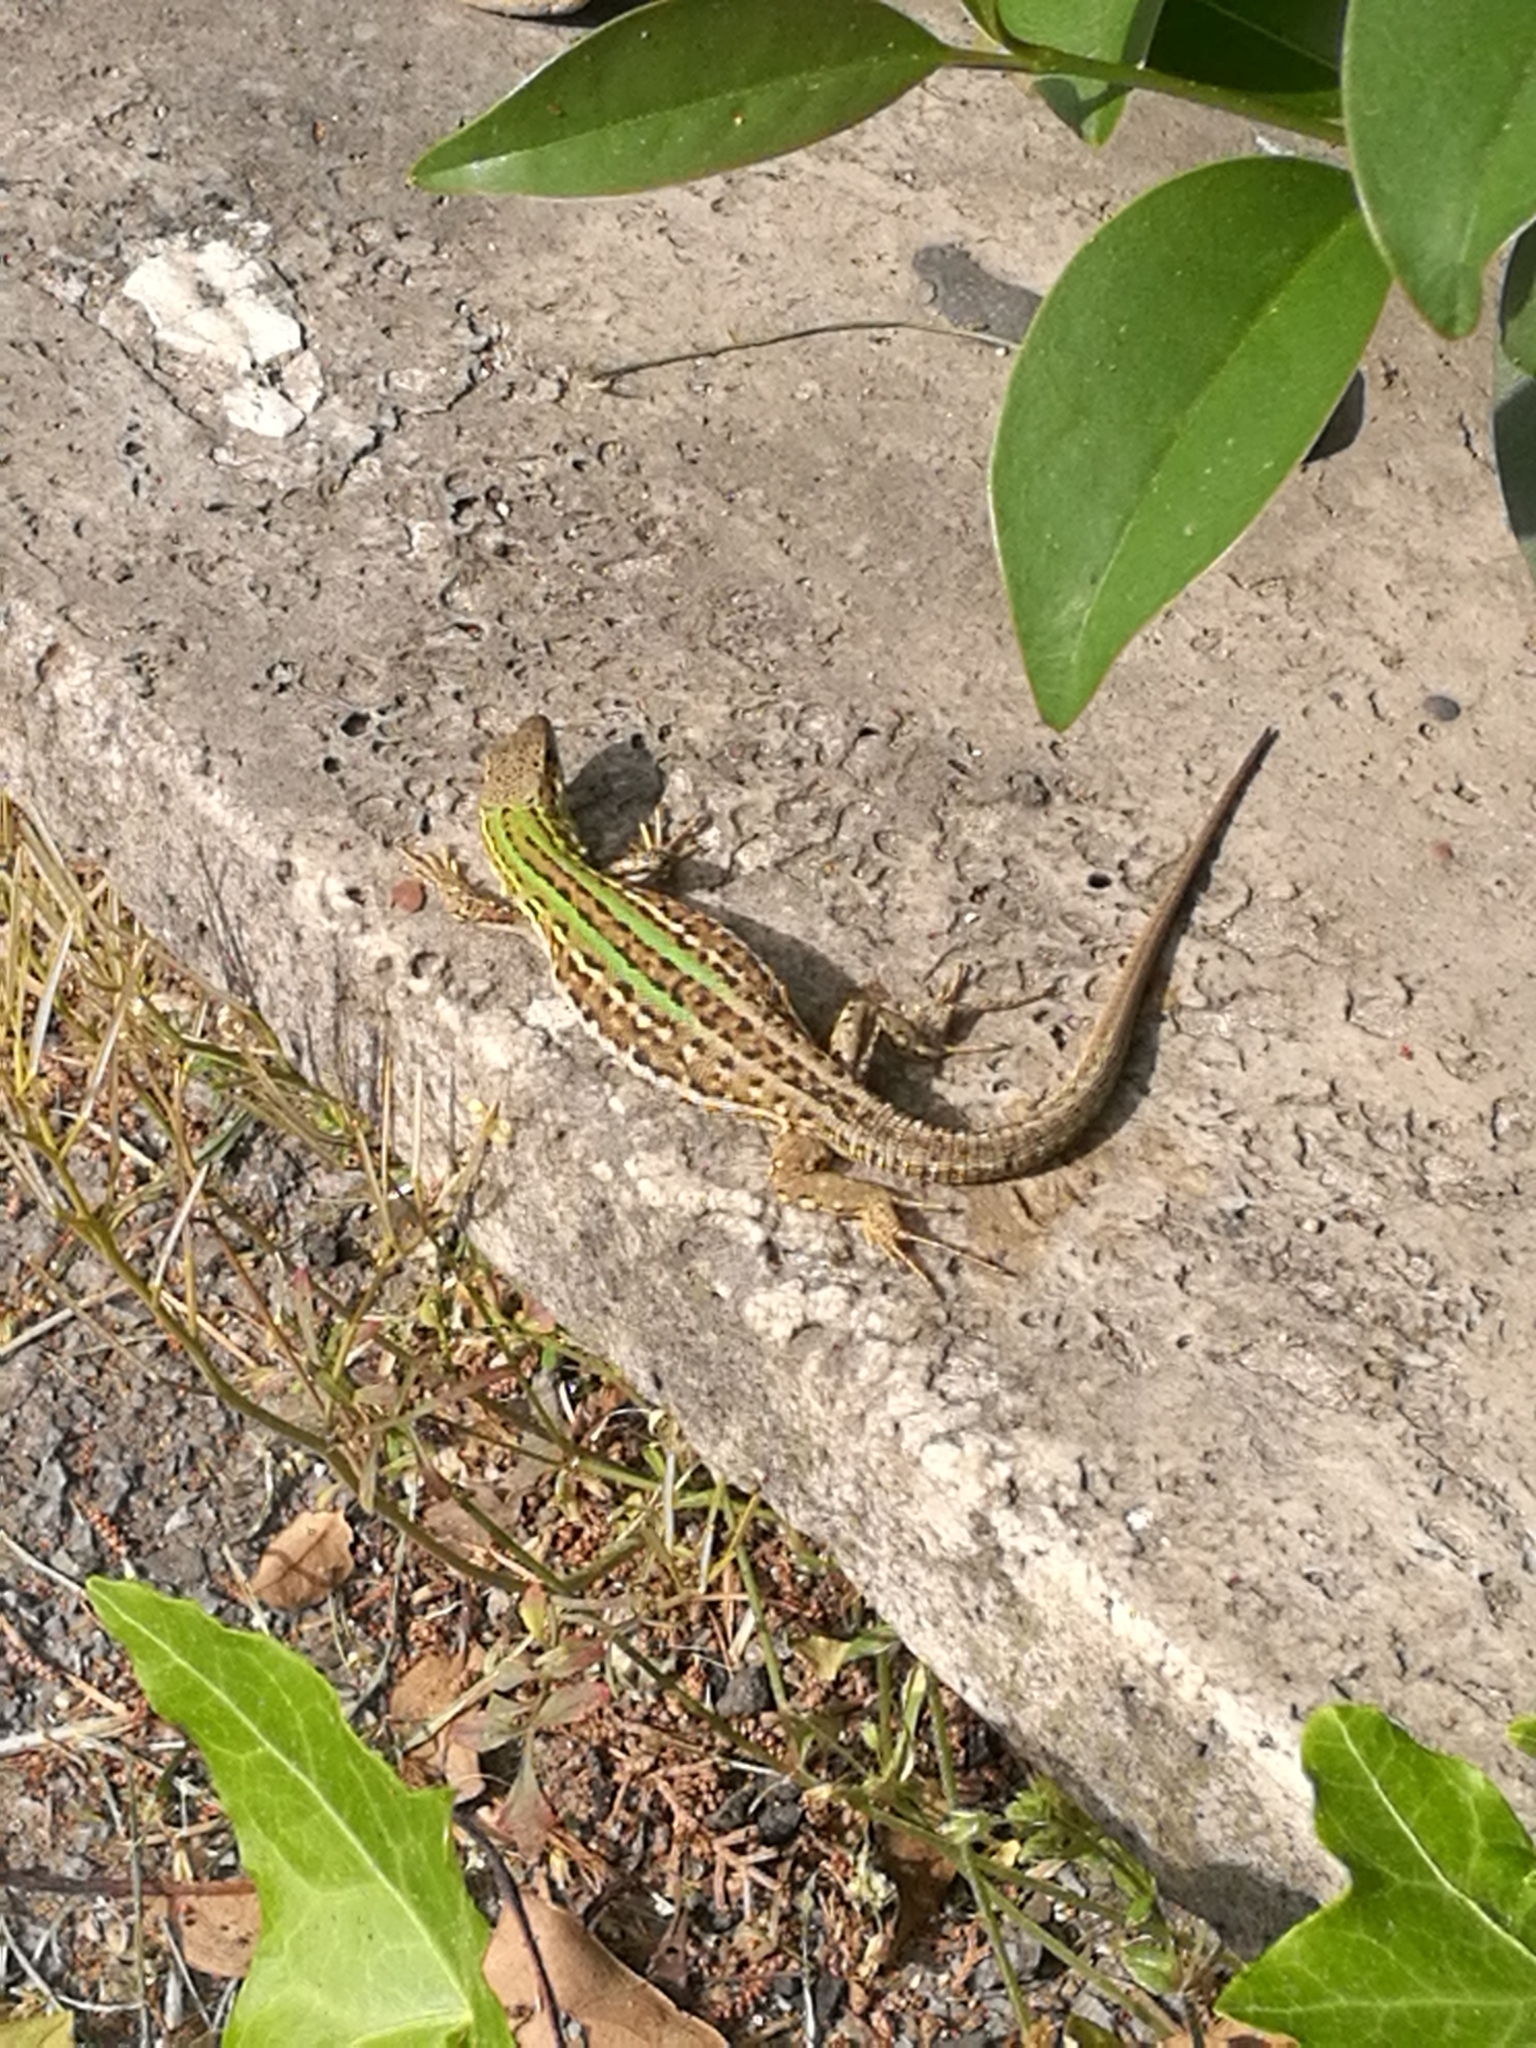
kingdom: Animalia
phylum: Chordata
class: Squamata
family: Lacertidae
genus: Podarcis
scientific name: Podarcis siculus
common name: Italian wall lizard
